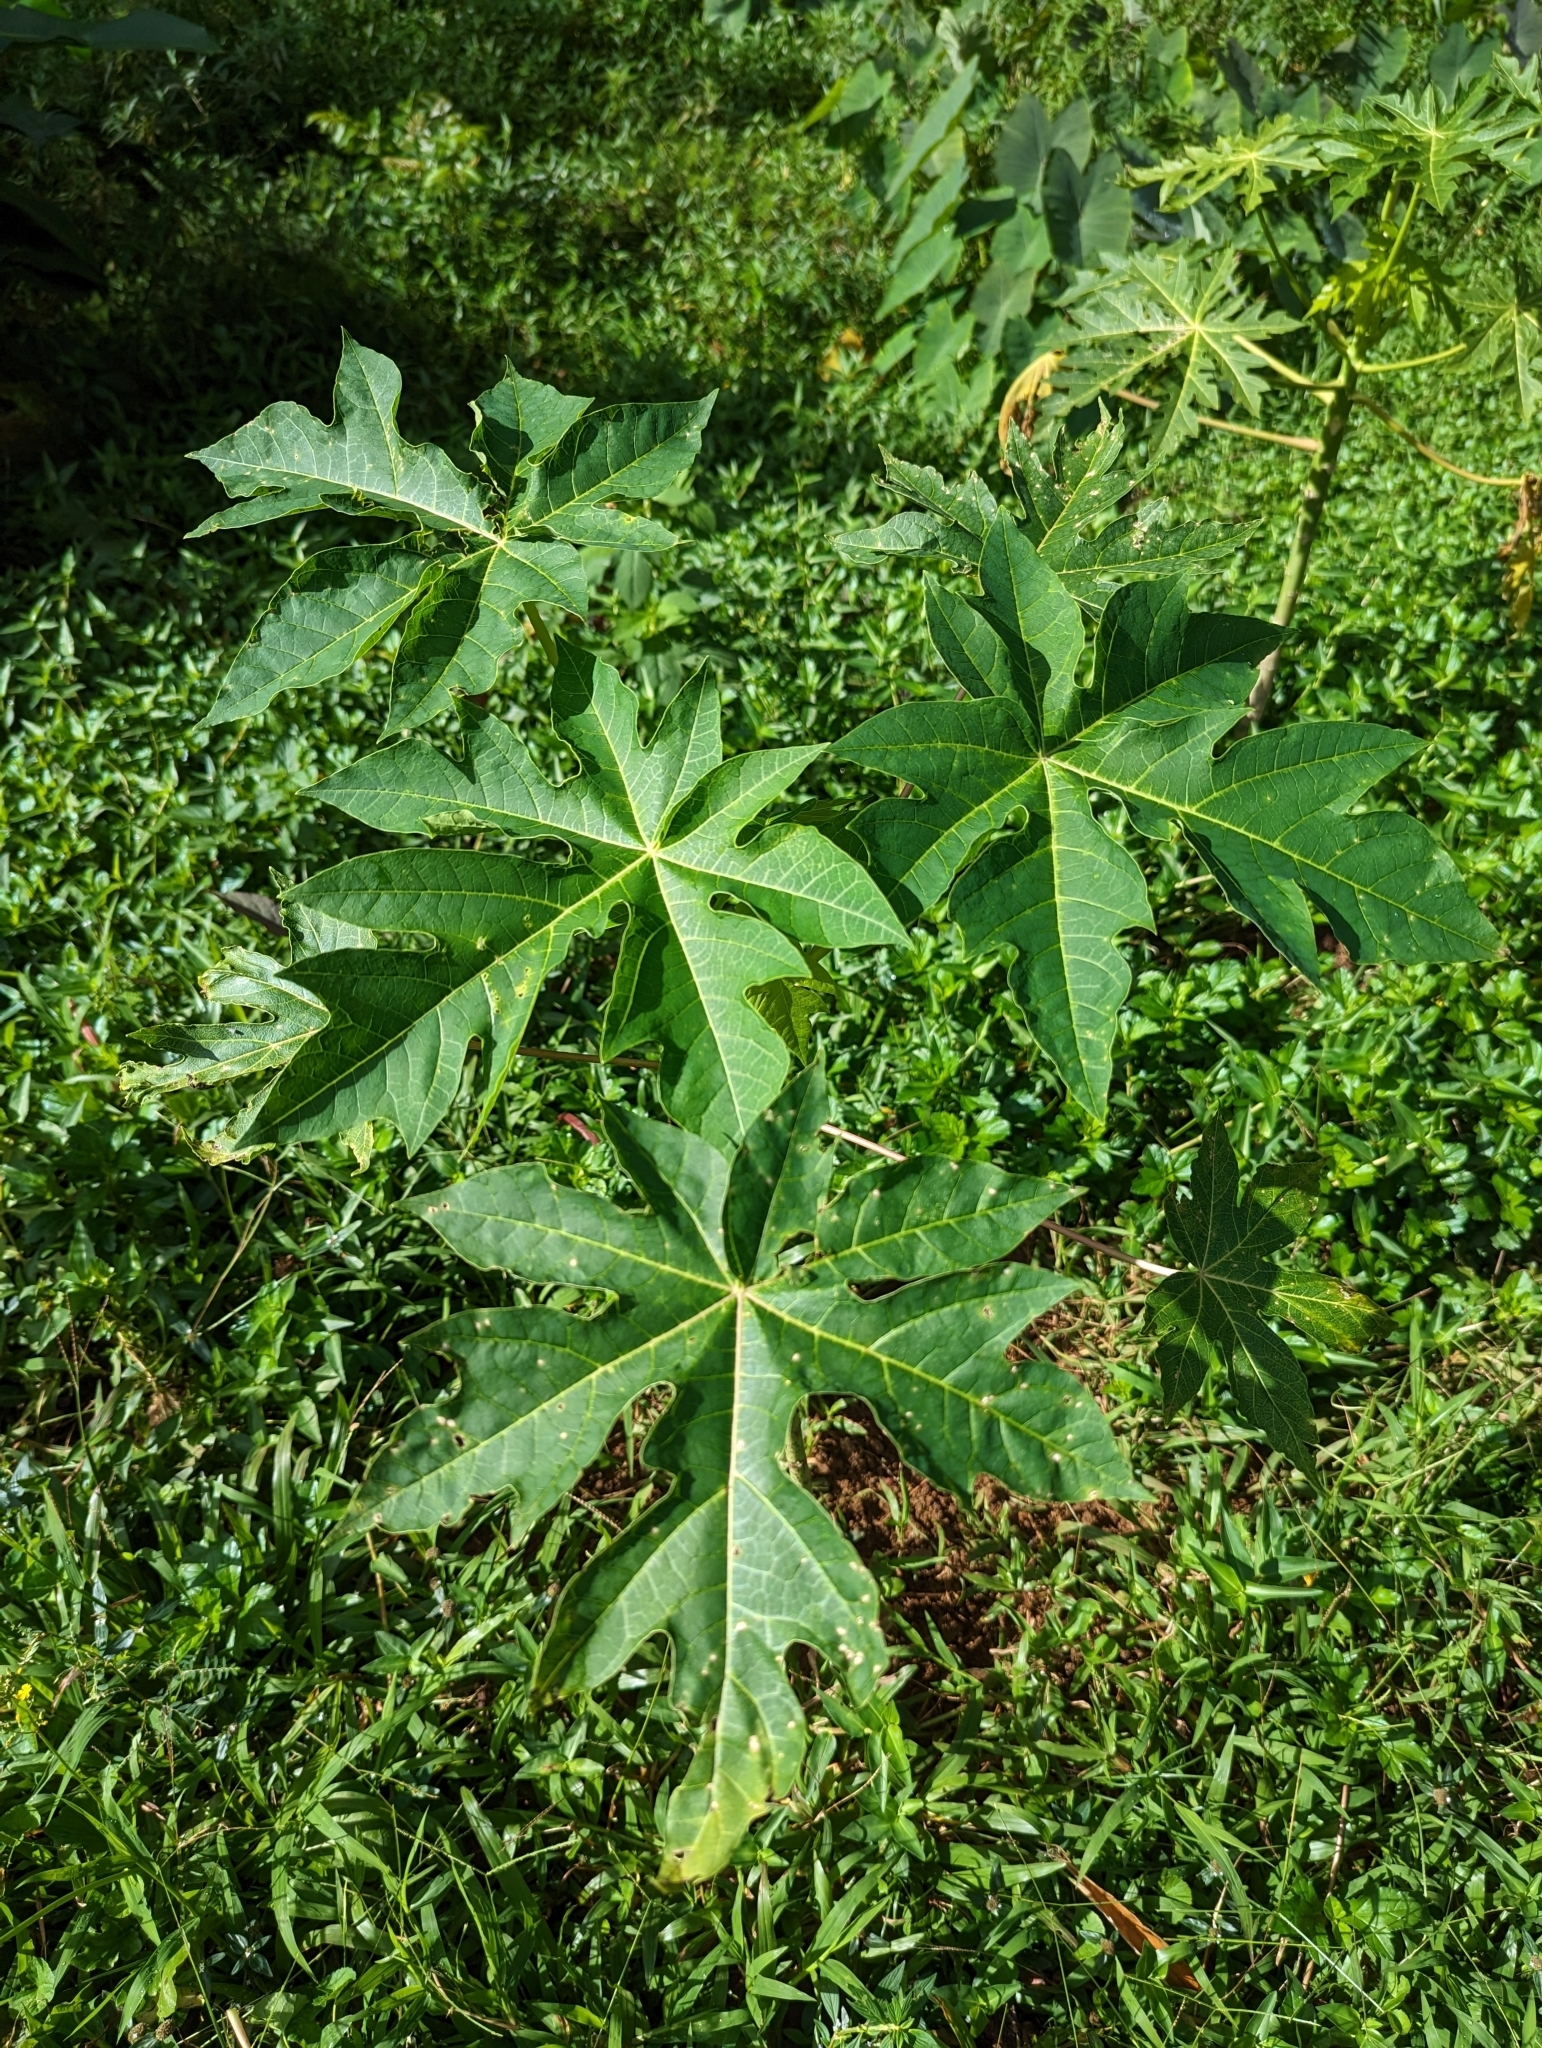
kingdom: Plantae
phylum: Tracheophyta
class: Magnoliopsida
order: Brassicales
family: Caricaceae
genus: Carica
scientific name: Carica papaya
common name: Papaya
